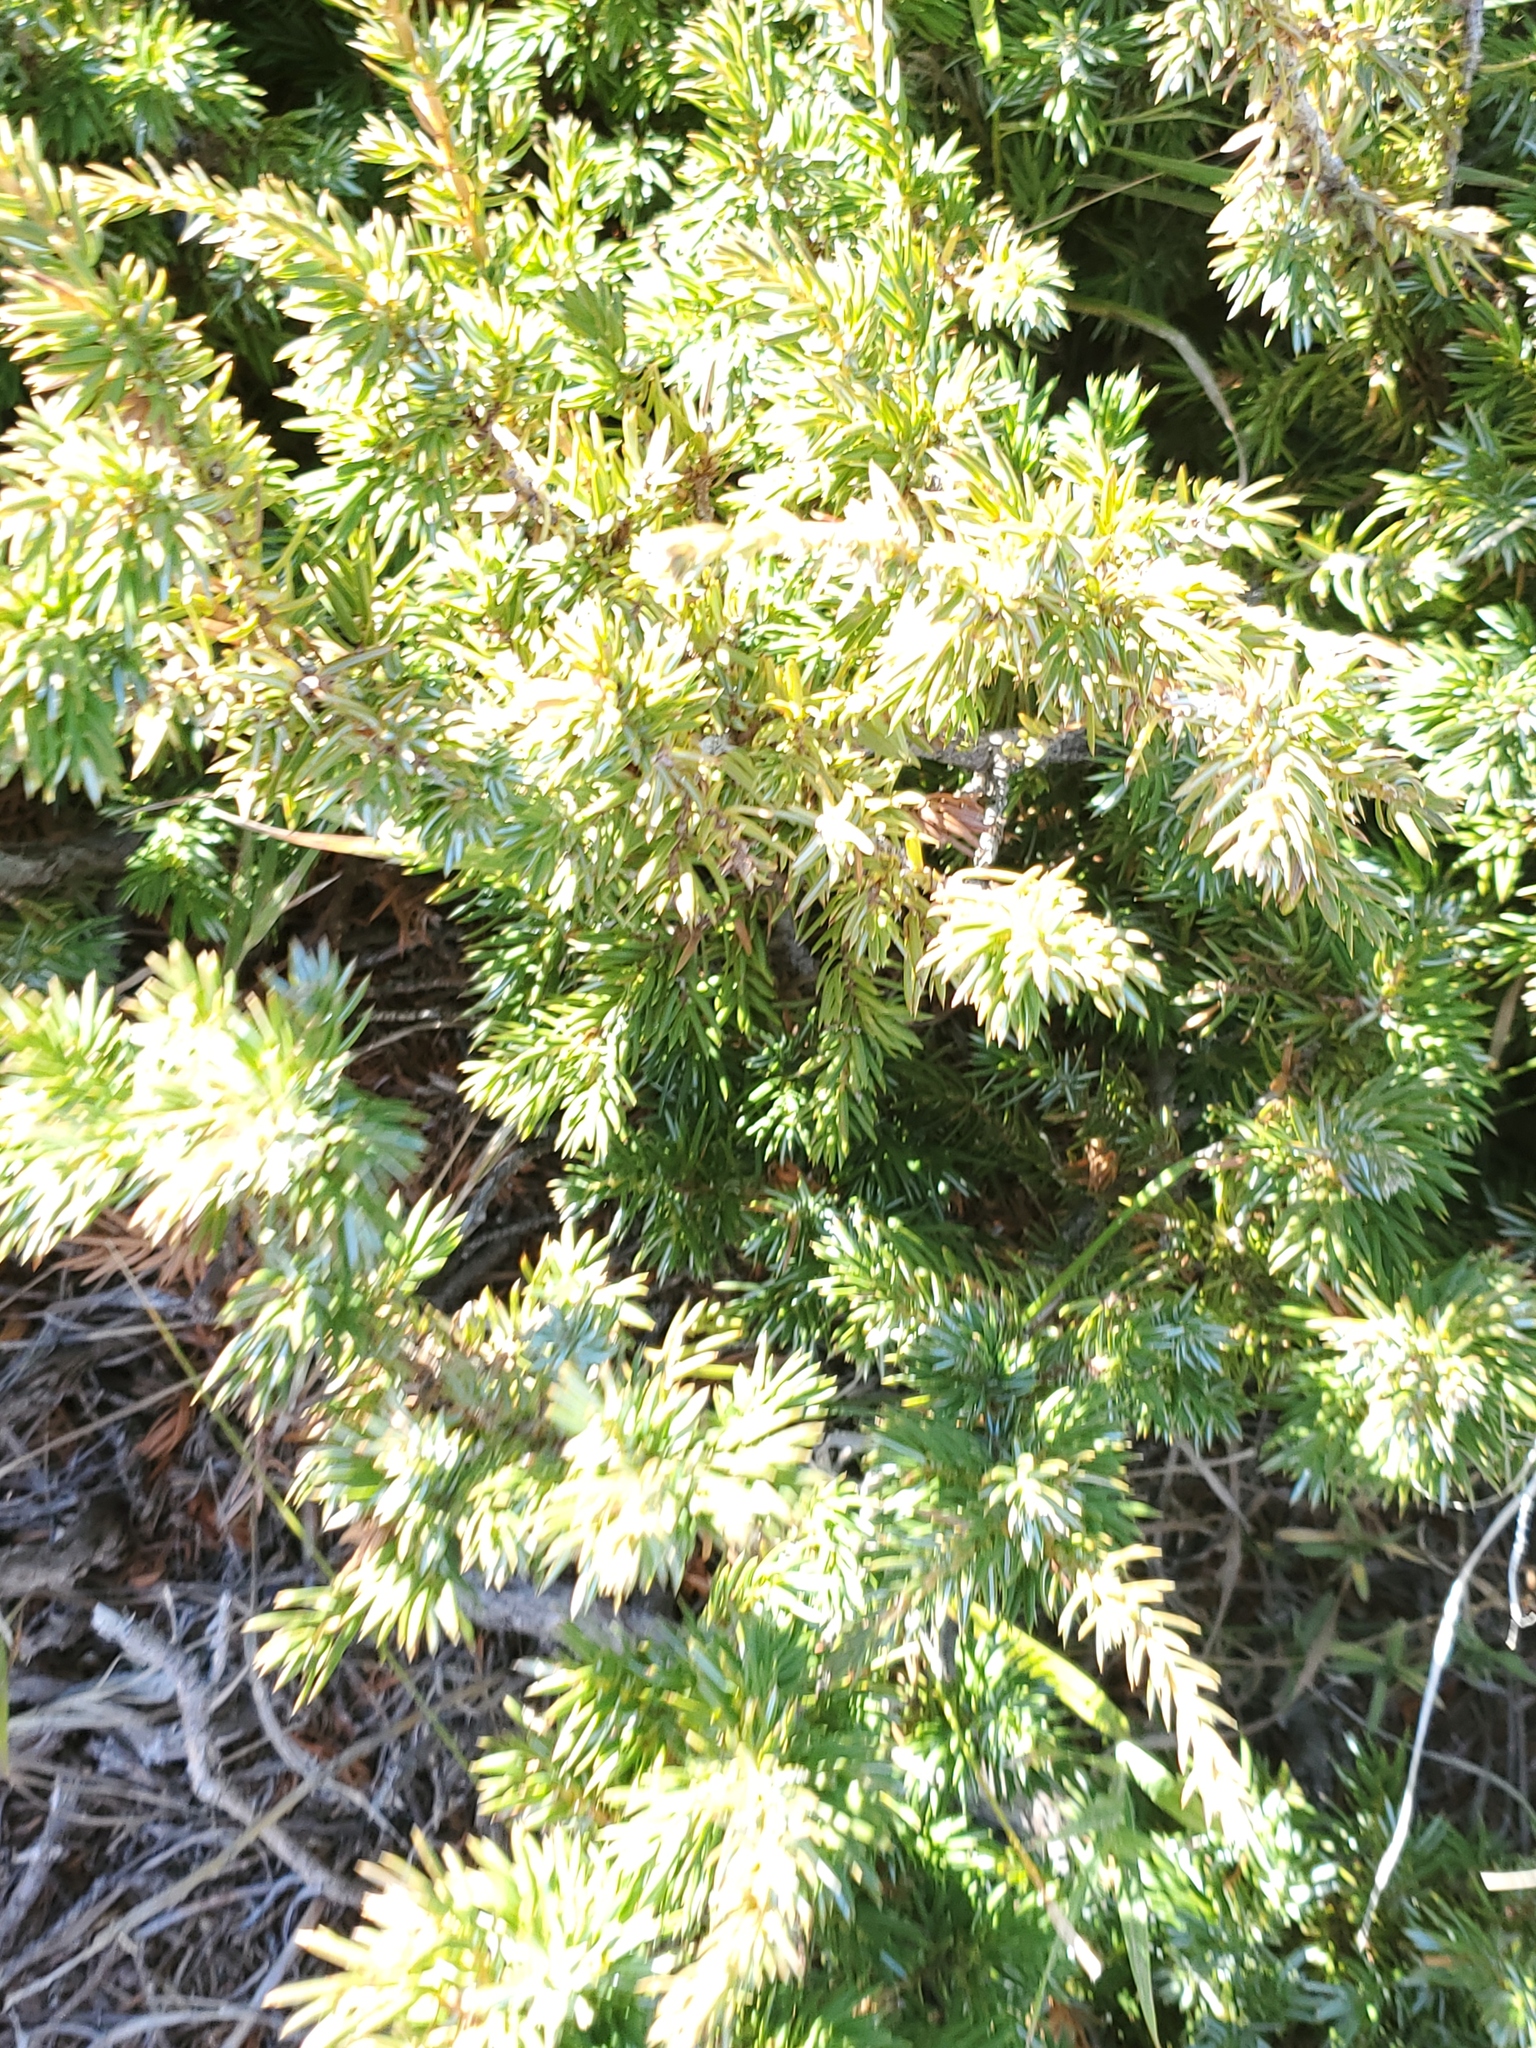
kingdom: Plantae
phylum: Tracheophyta
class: Pinopsida
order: Pinales
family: Cupressaceae
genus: Juniperus
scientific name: Juniperus communis
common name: Common juniper
